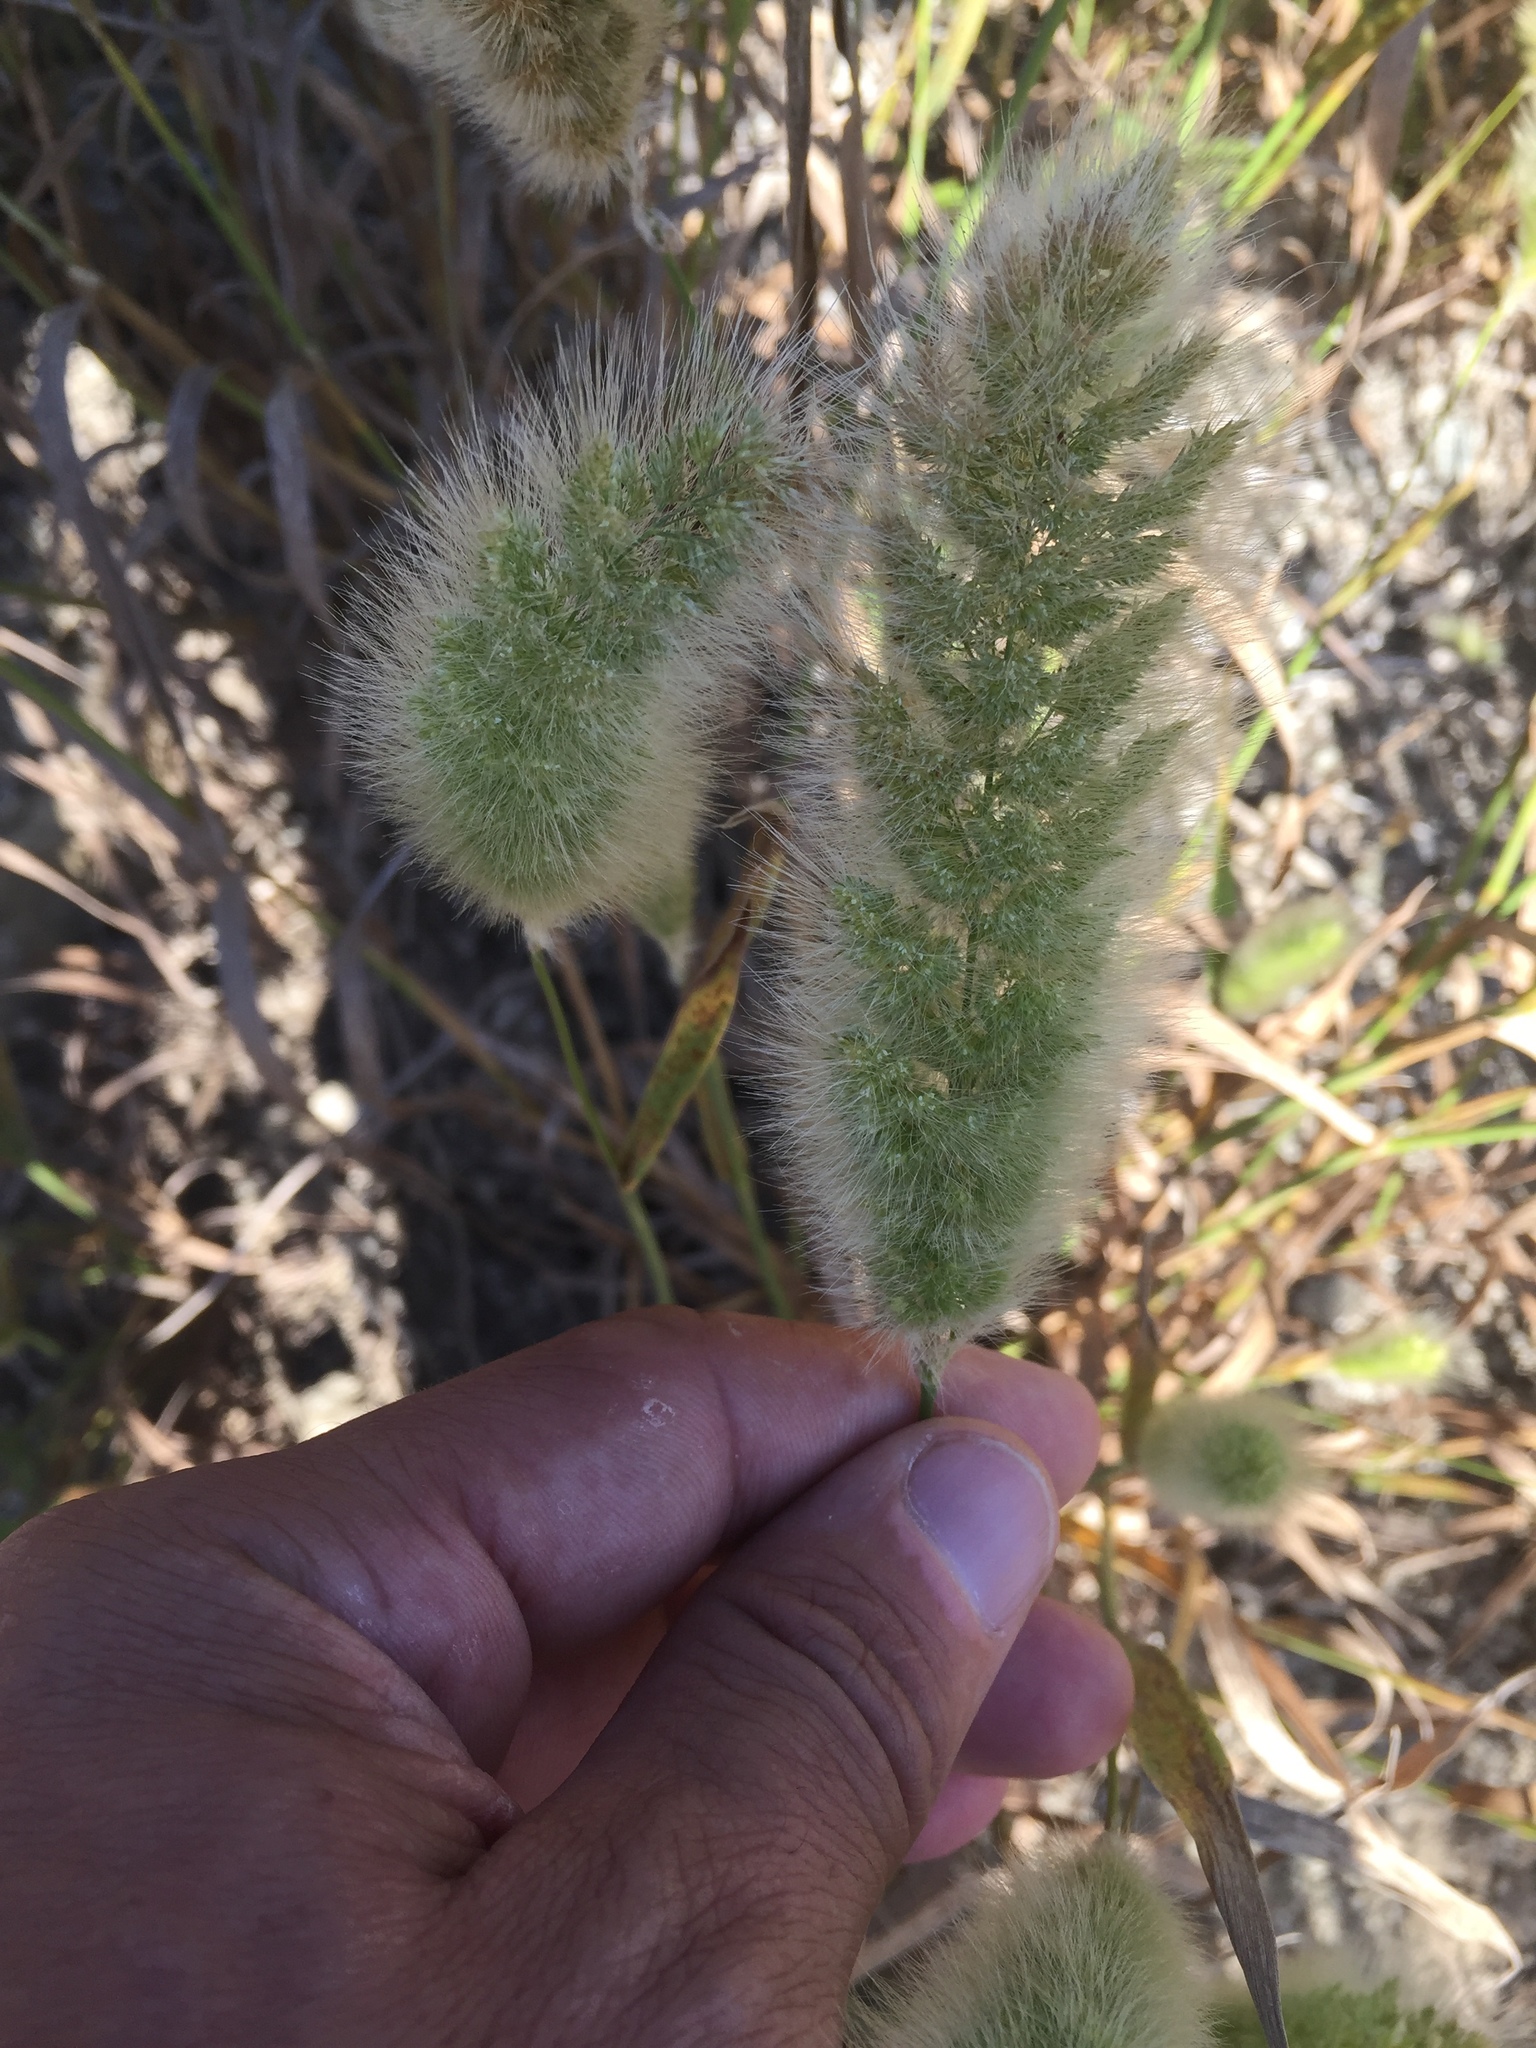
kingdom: Plantae
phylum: Tracheophyta
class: Liliopsida
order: Poales
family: Poaceae
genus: Polypogon
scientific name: Polypogon monspeliensis
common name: Annual rabbitsfoot grass
